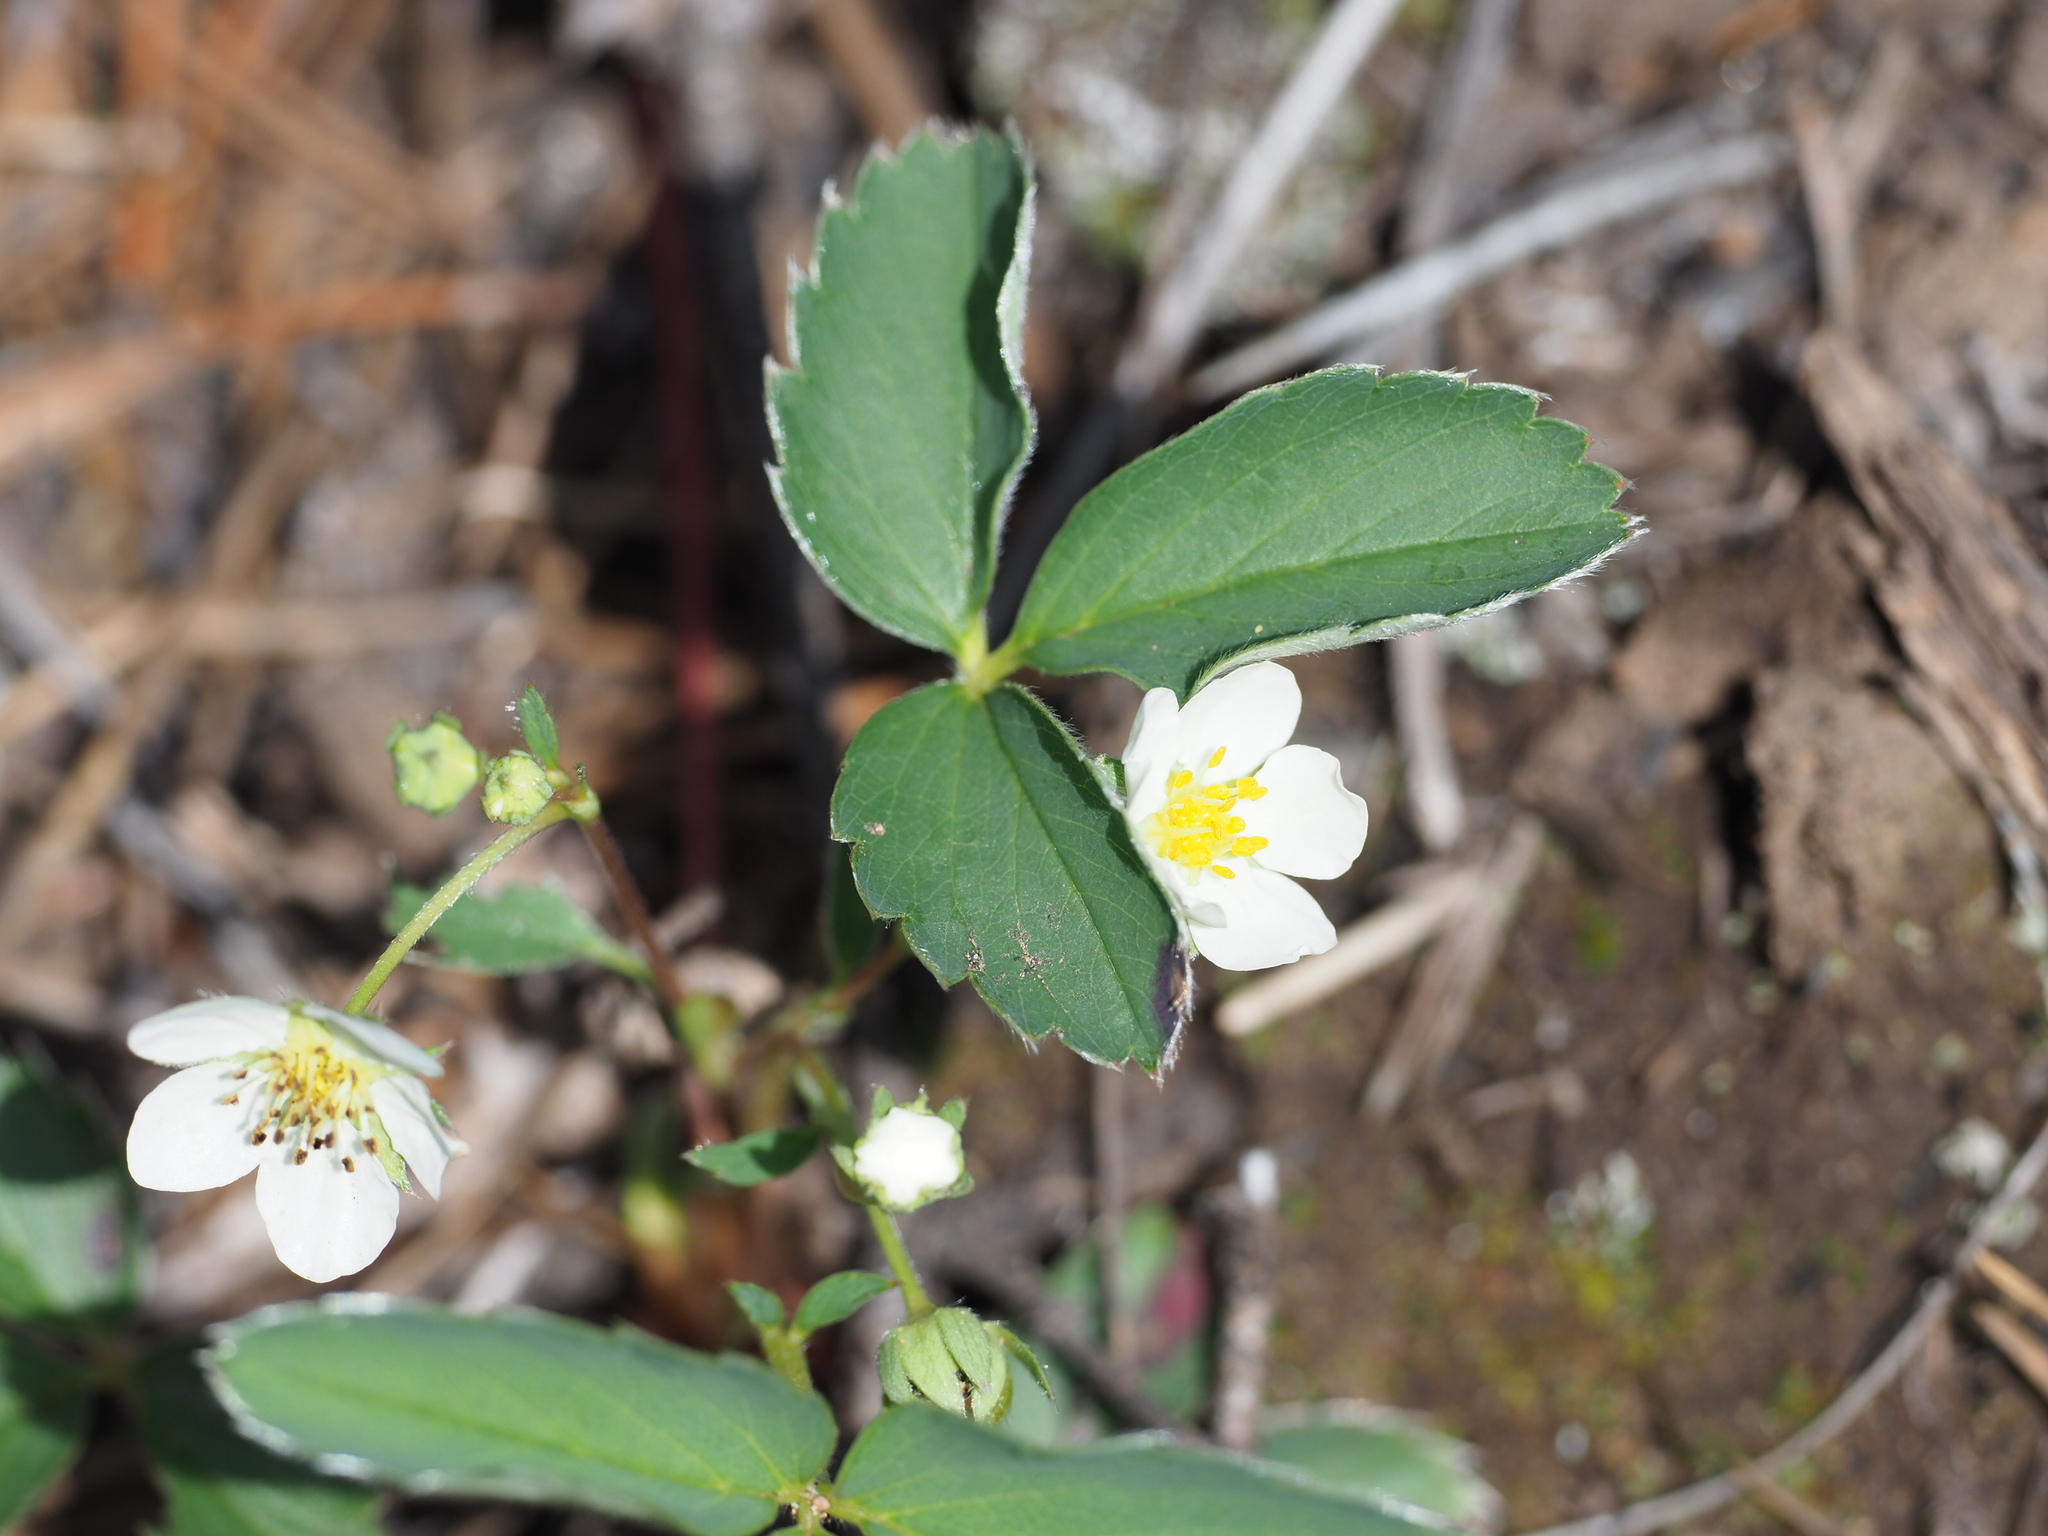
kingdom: Plantae
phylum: Tracheophyta
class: Magnoliopsida
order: Rosales
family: Rosaceae
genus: Fragaria
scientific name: Fragaria virginiana
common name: Thickleaved wild strawberry
